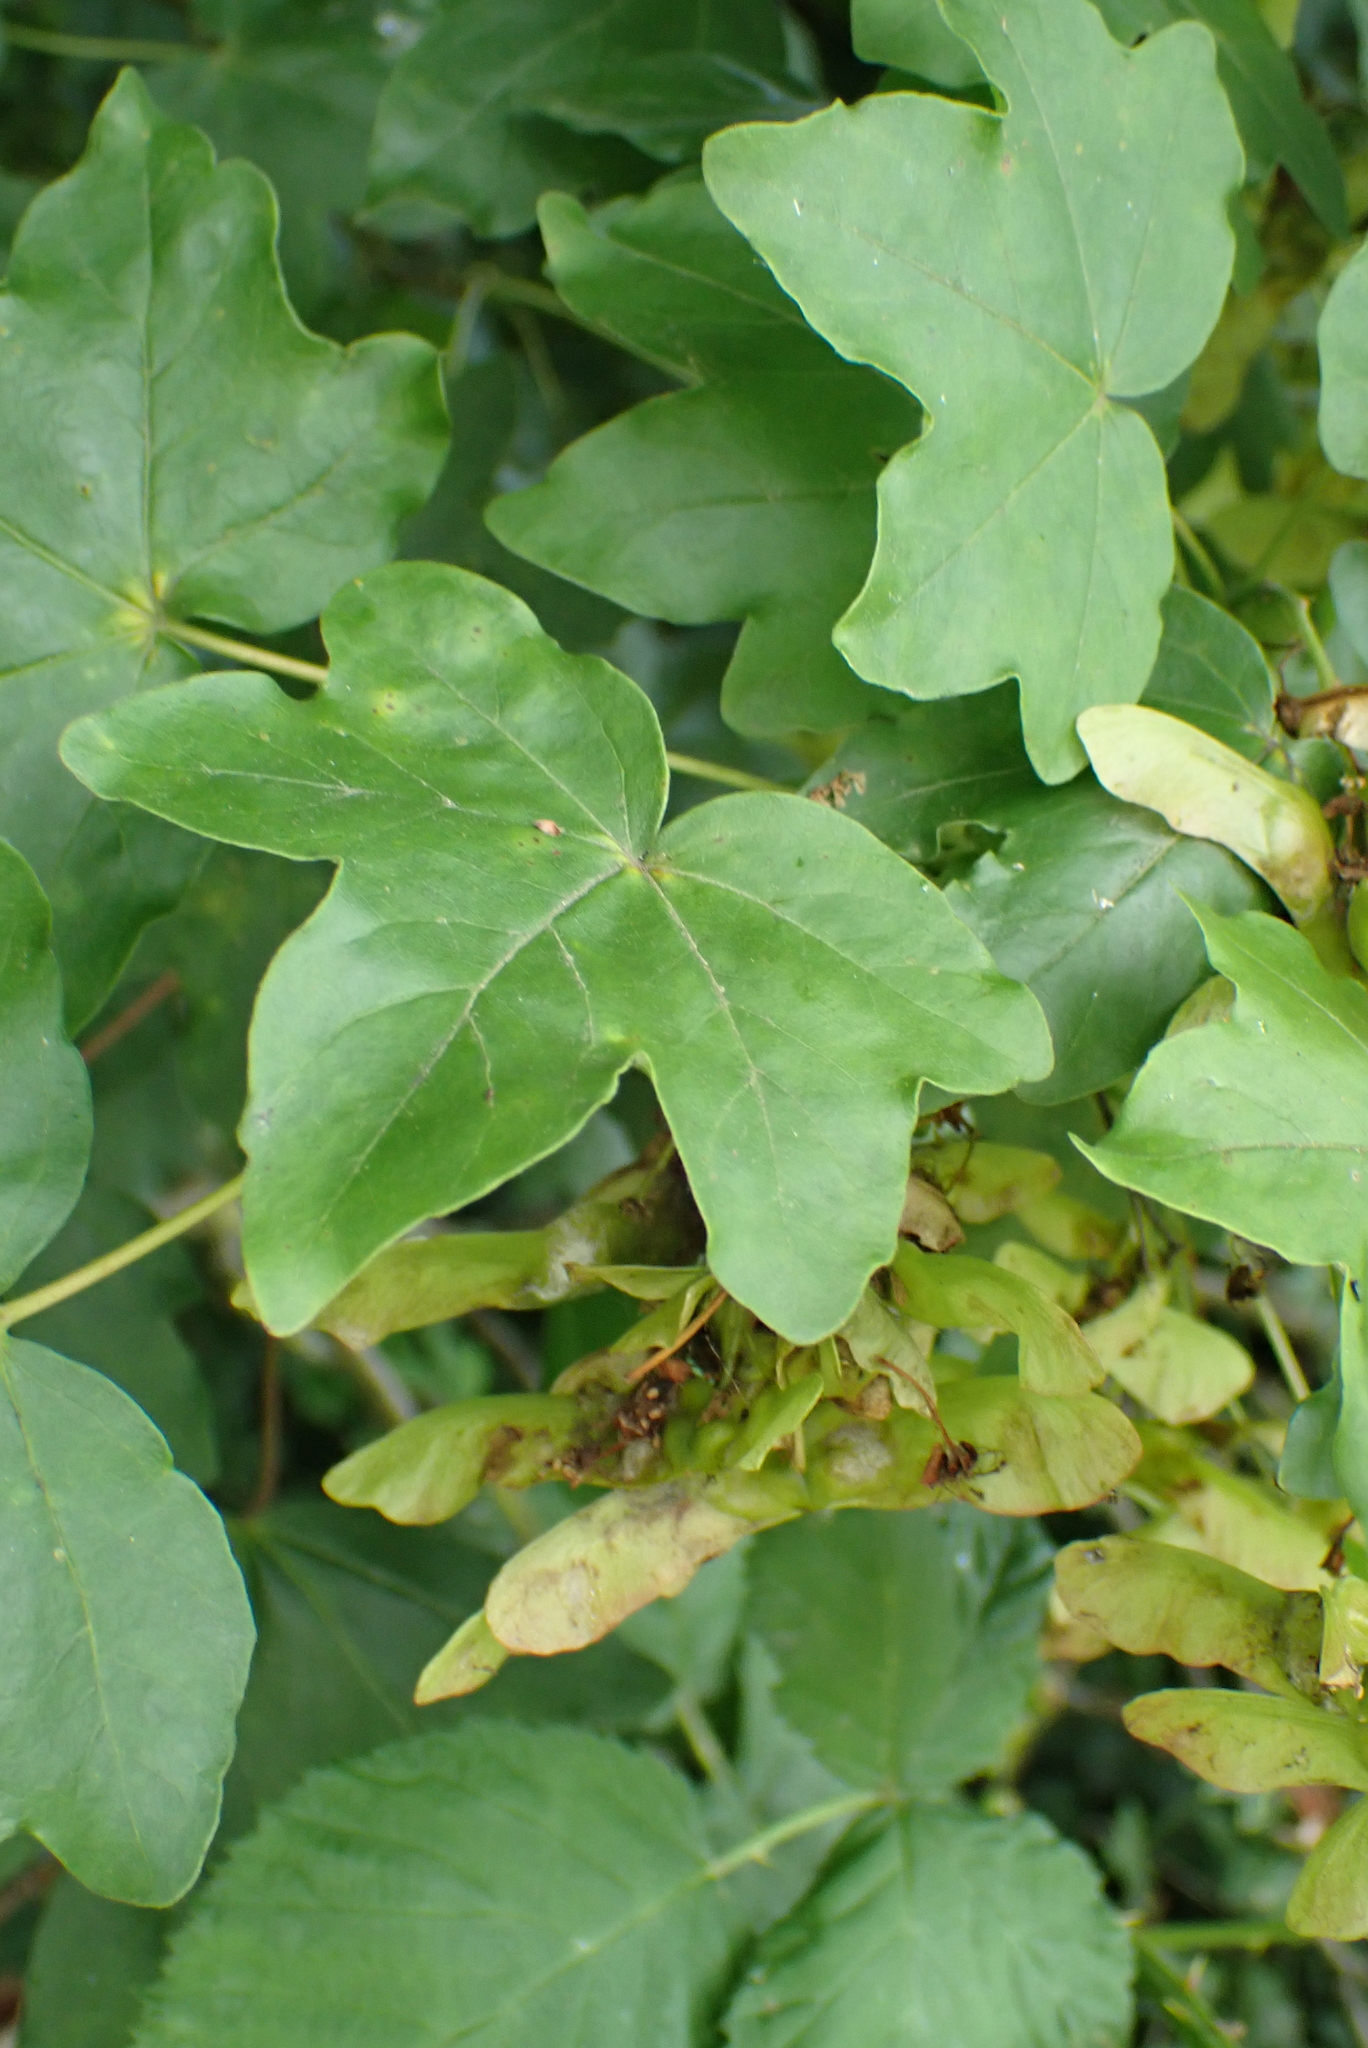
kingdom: Plantae
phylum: Tracheophyta
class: Magnoliopsida
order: Sapindales
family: Sapindaceae
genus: Acer
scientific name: Acer campestre
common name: Field maple
